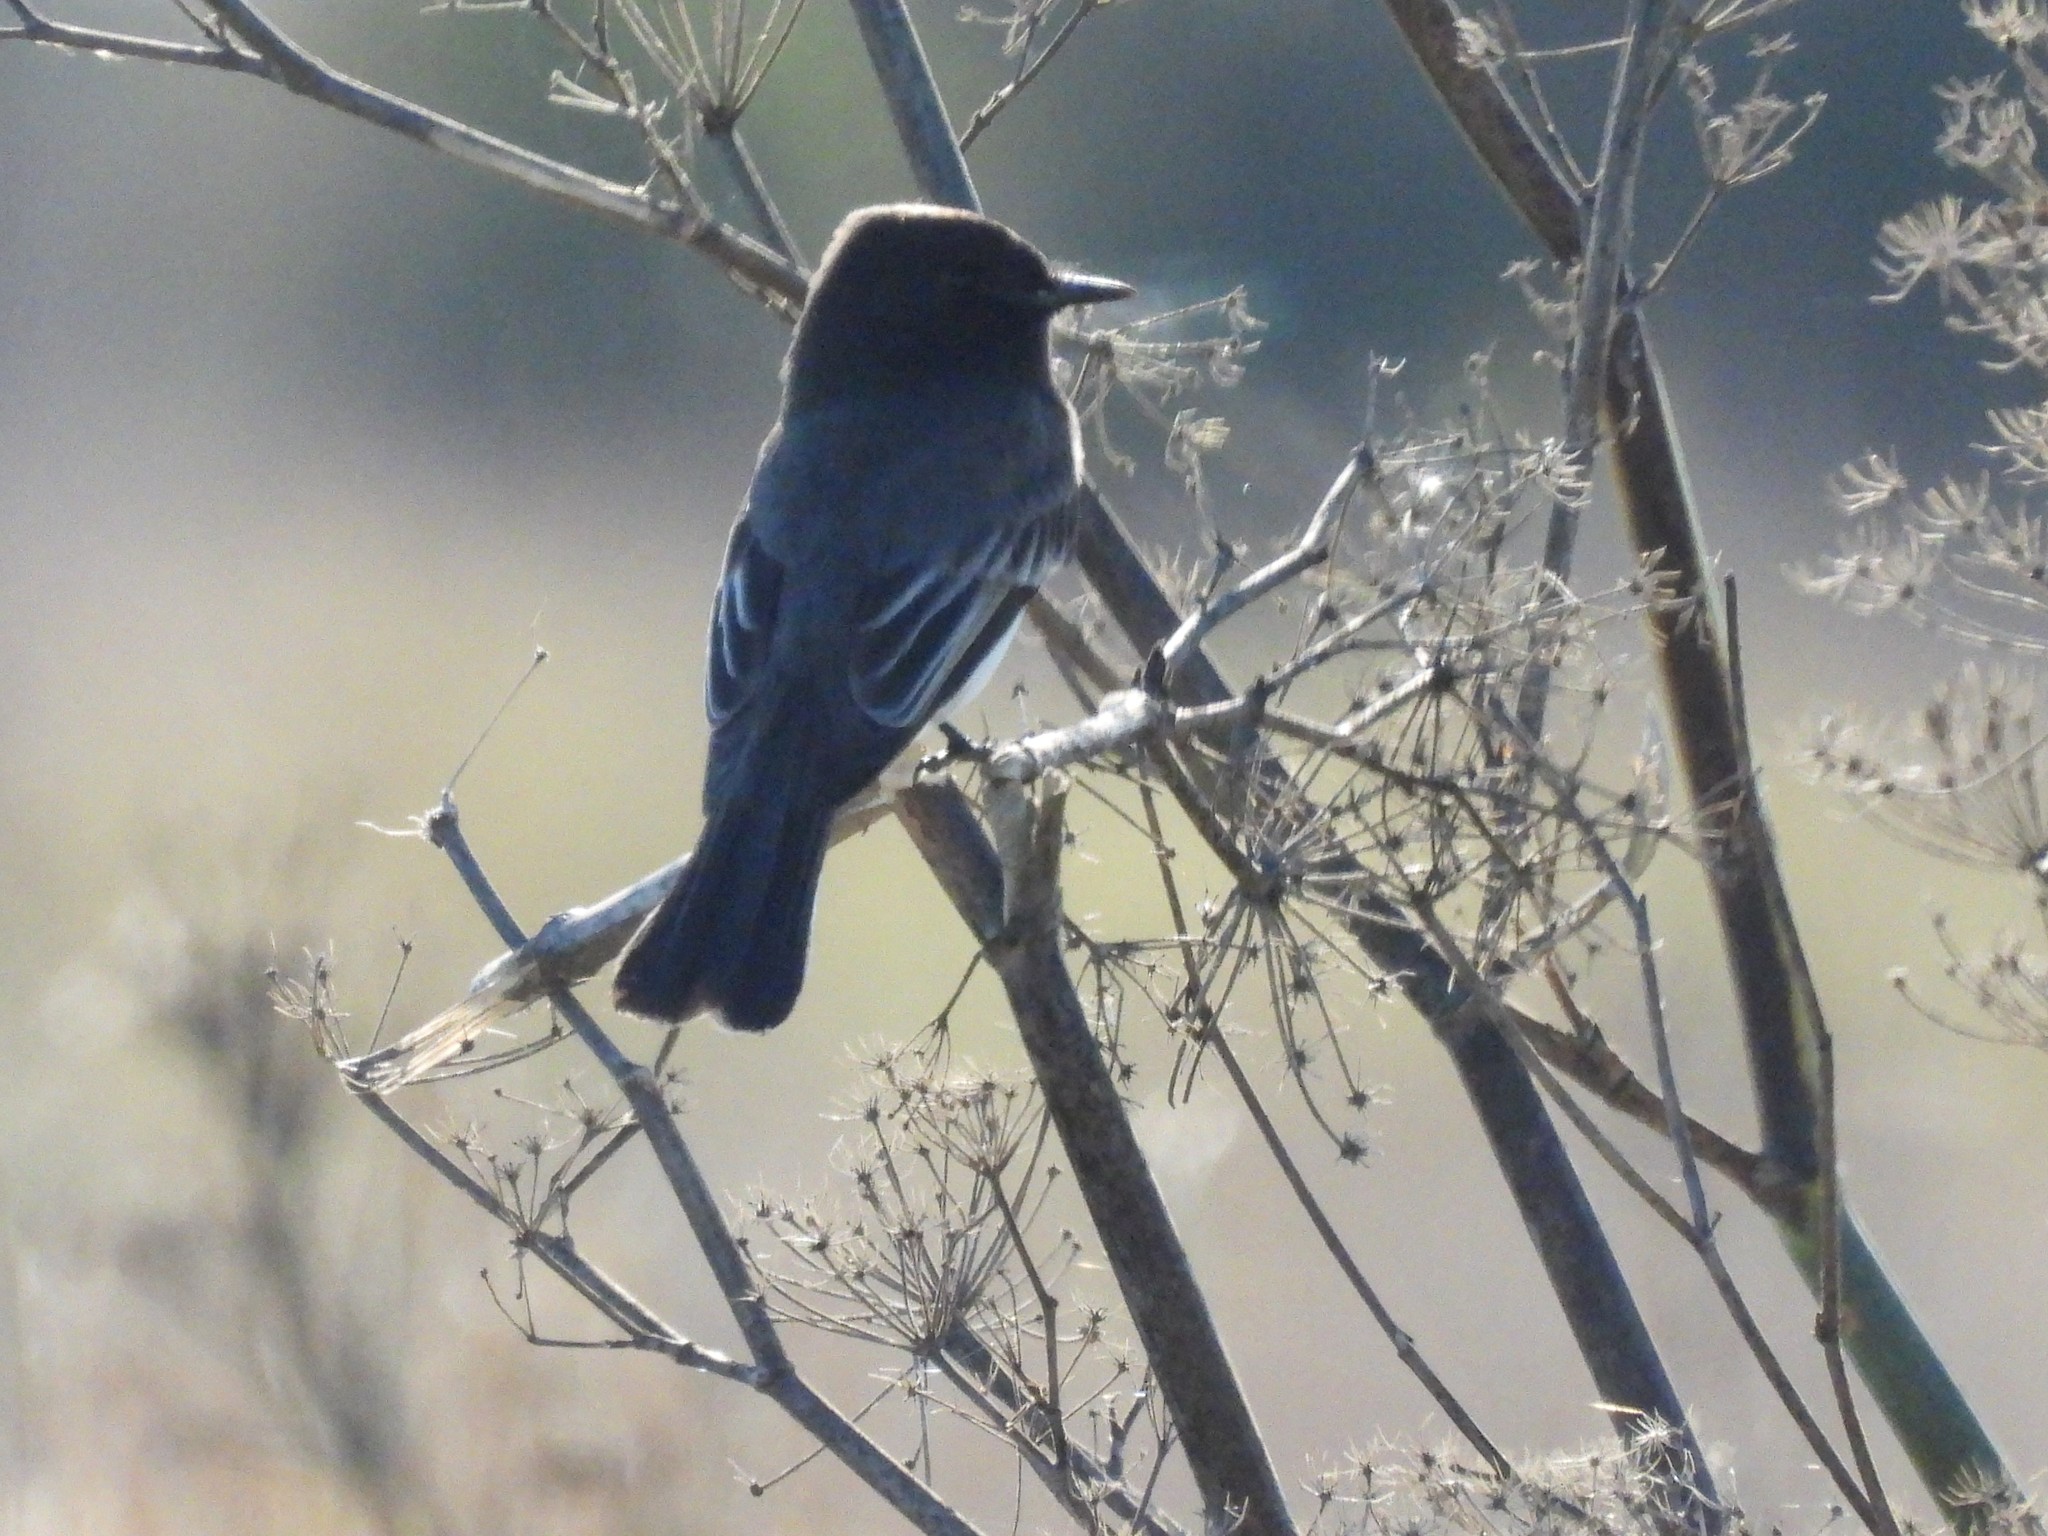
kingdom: Animalia
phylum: Chordata
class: Aves
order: Passeriformes
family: Tyrannidae
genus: Sayornis
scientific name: Sayornis nigricans
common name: Black phoebe
